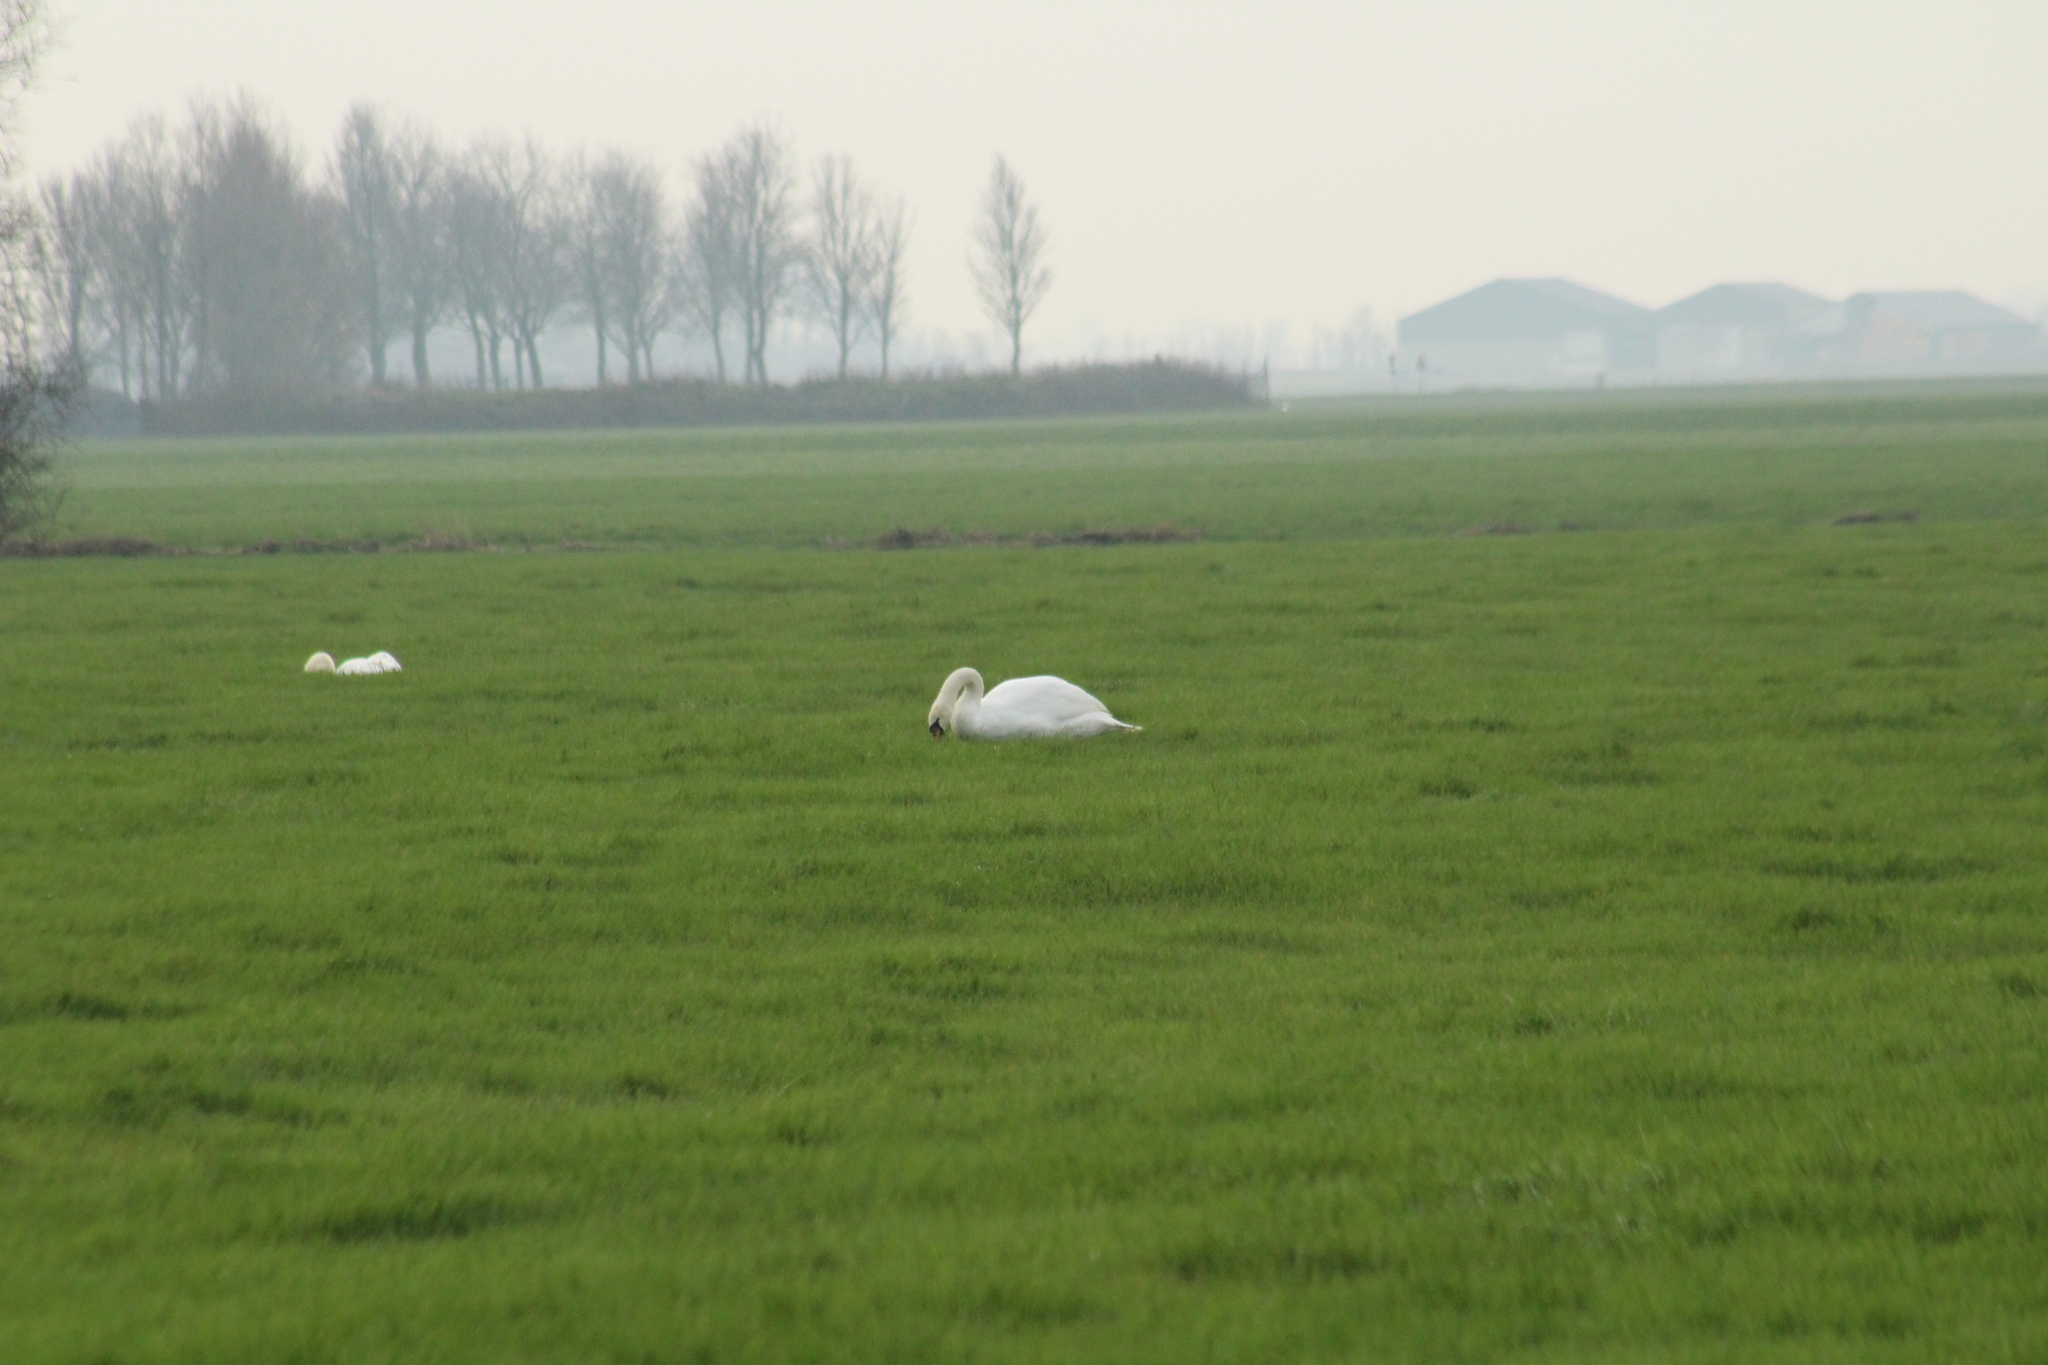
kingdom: Animalia
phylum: Chordata
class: Aves
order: Anseriformes
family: Anatidae
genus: Cygnus
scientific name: Cygnus olor
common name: Mute swan
